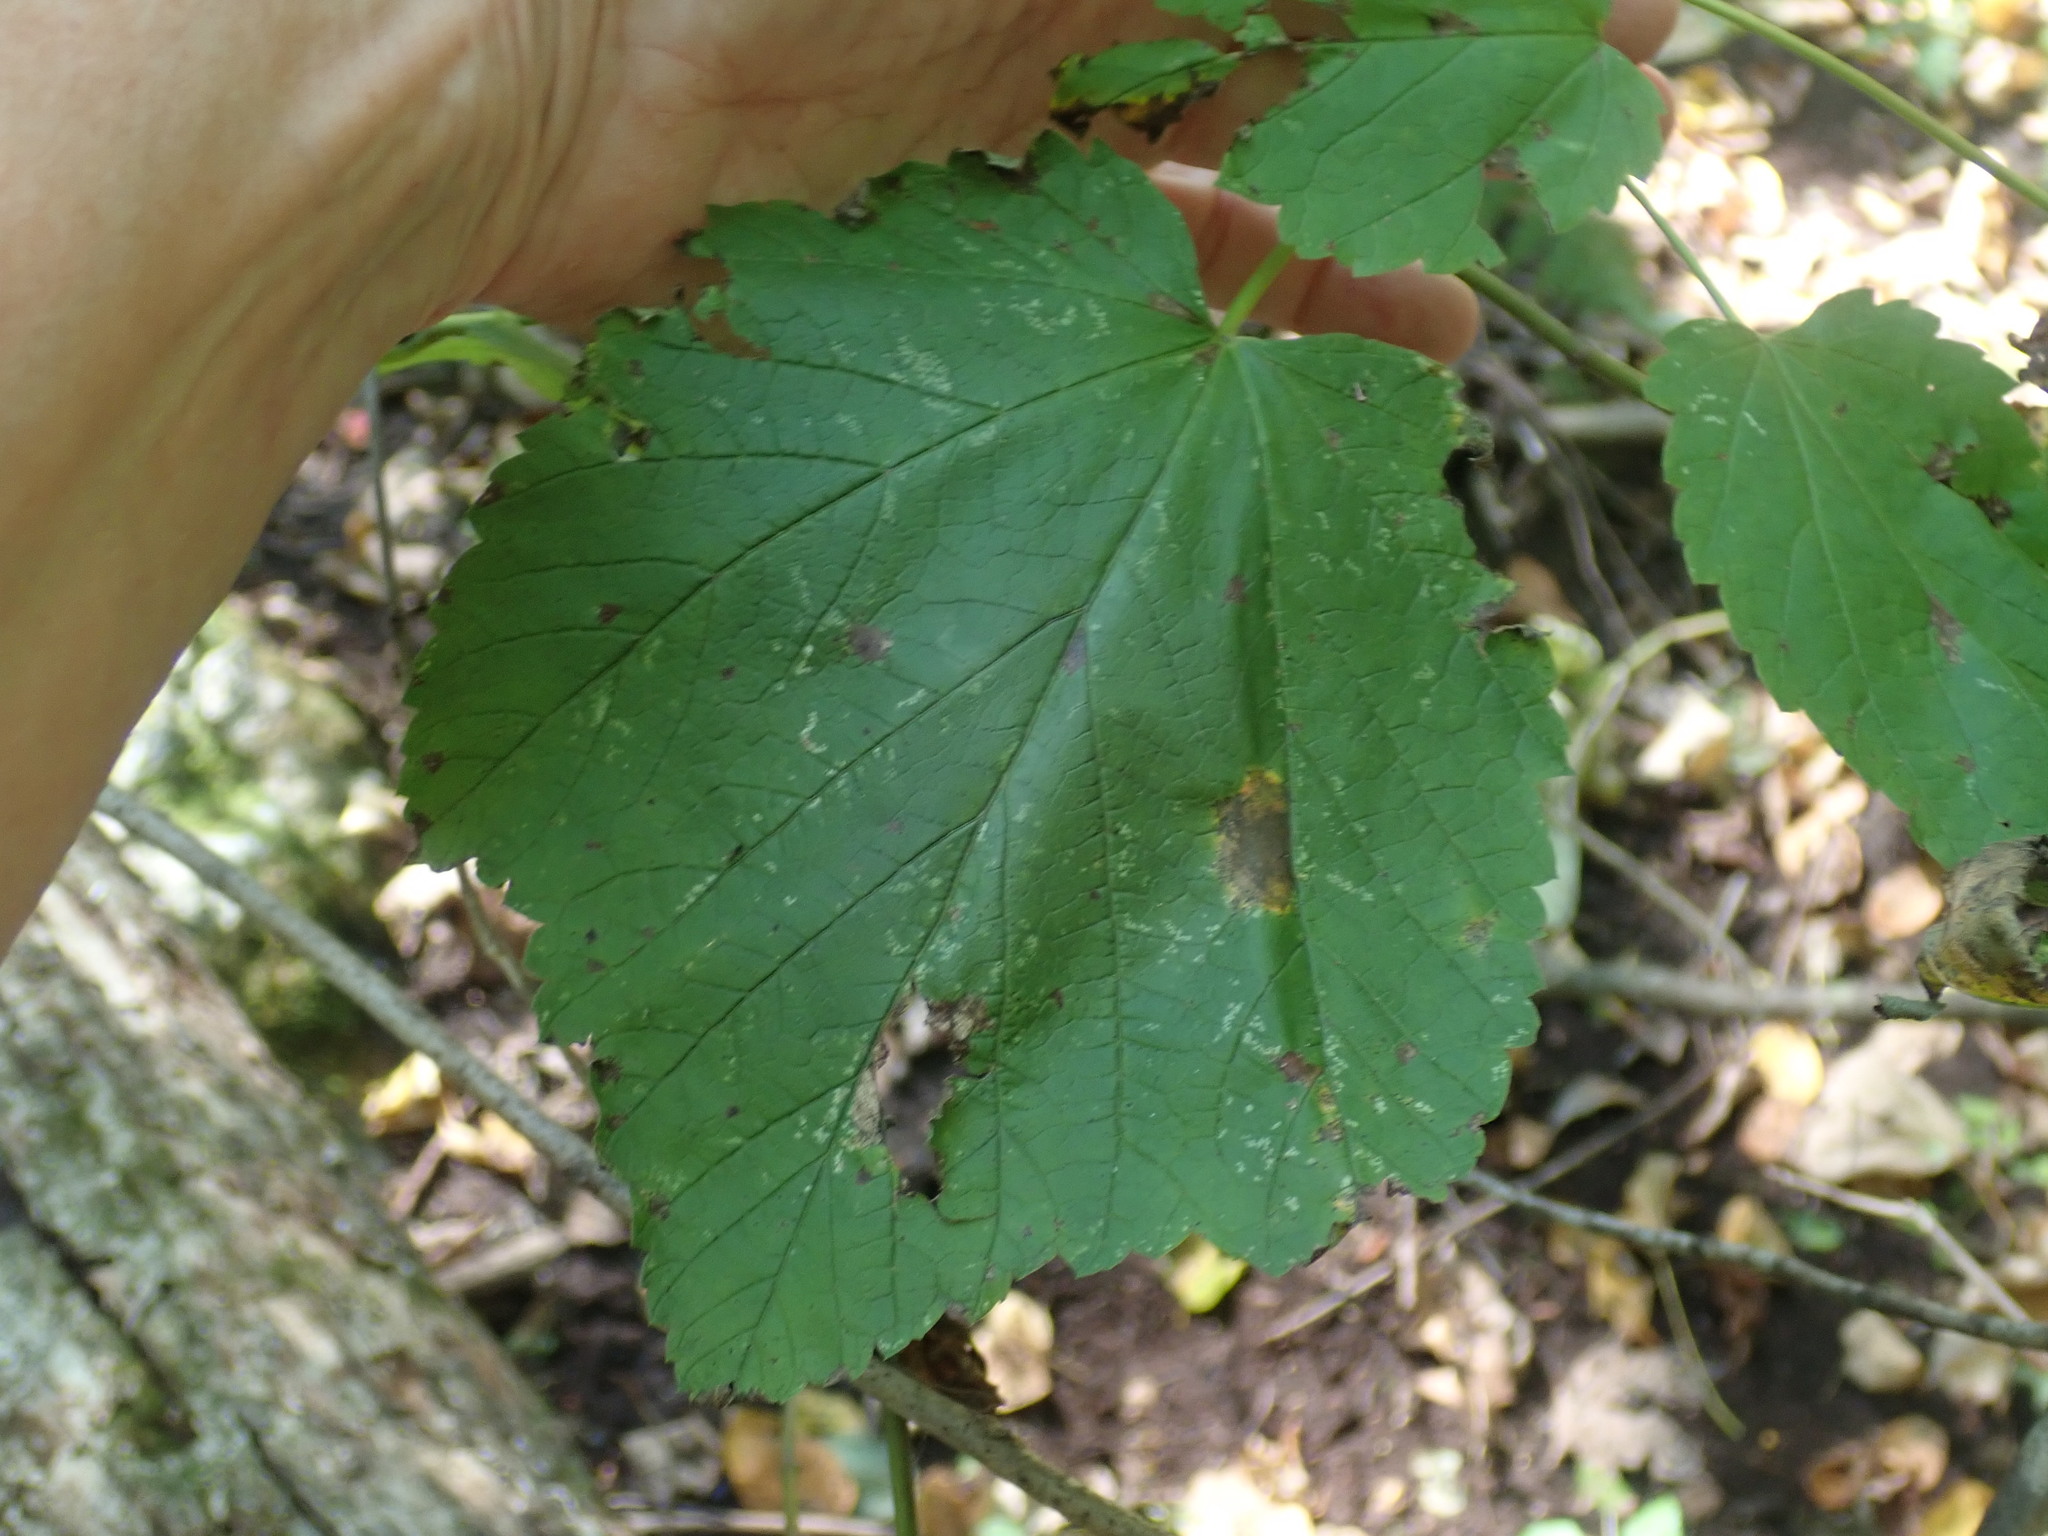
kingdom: Plantae
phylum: Tracheophyta
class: Magnoliopsida
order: Sapindales
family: Sapindaceae
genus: Acer
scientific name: Acer spicatum
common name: Mountain maple
